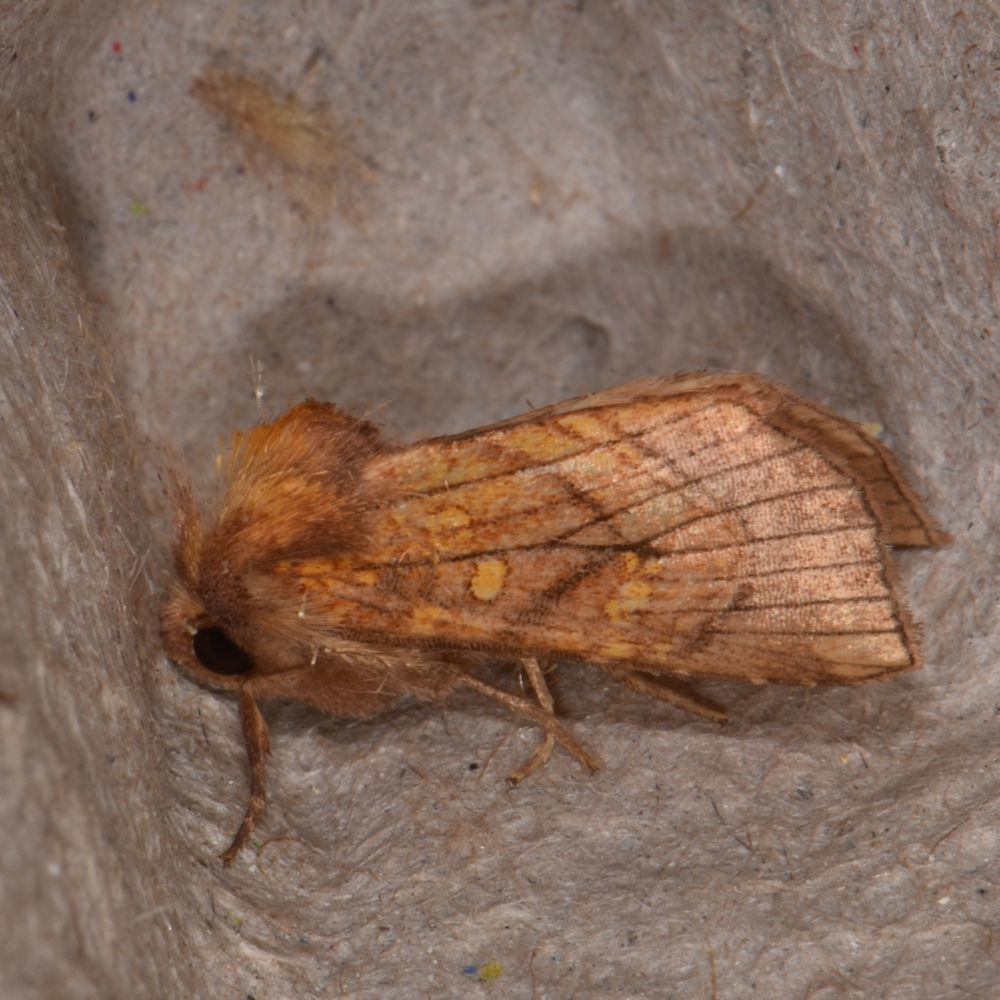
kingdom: Animalia
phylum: Arthropoda
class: Insecta
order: Lepidoptera
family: Noctuidae
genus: Papaipema
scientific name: Papaipema inquaesita
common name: Sensitive fern borer moth
